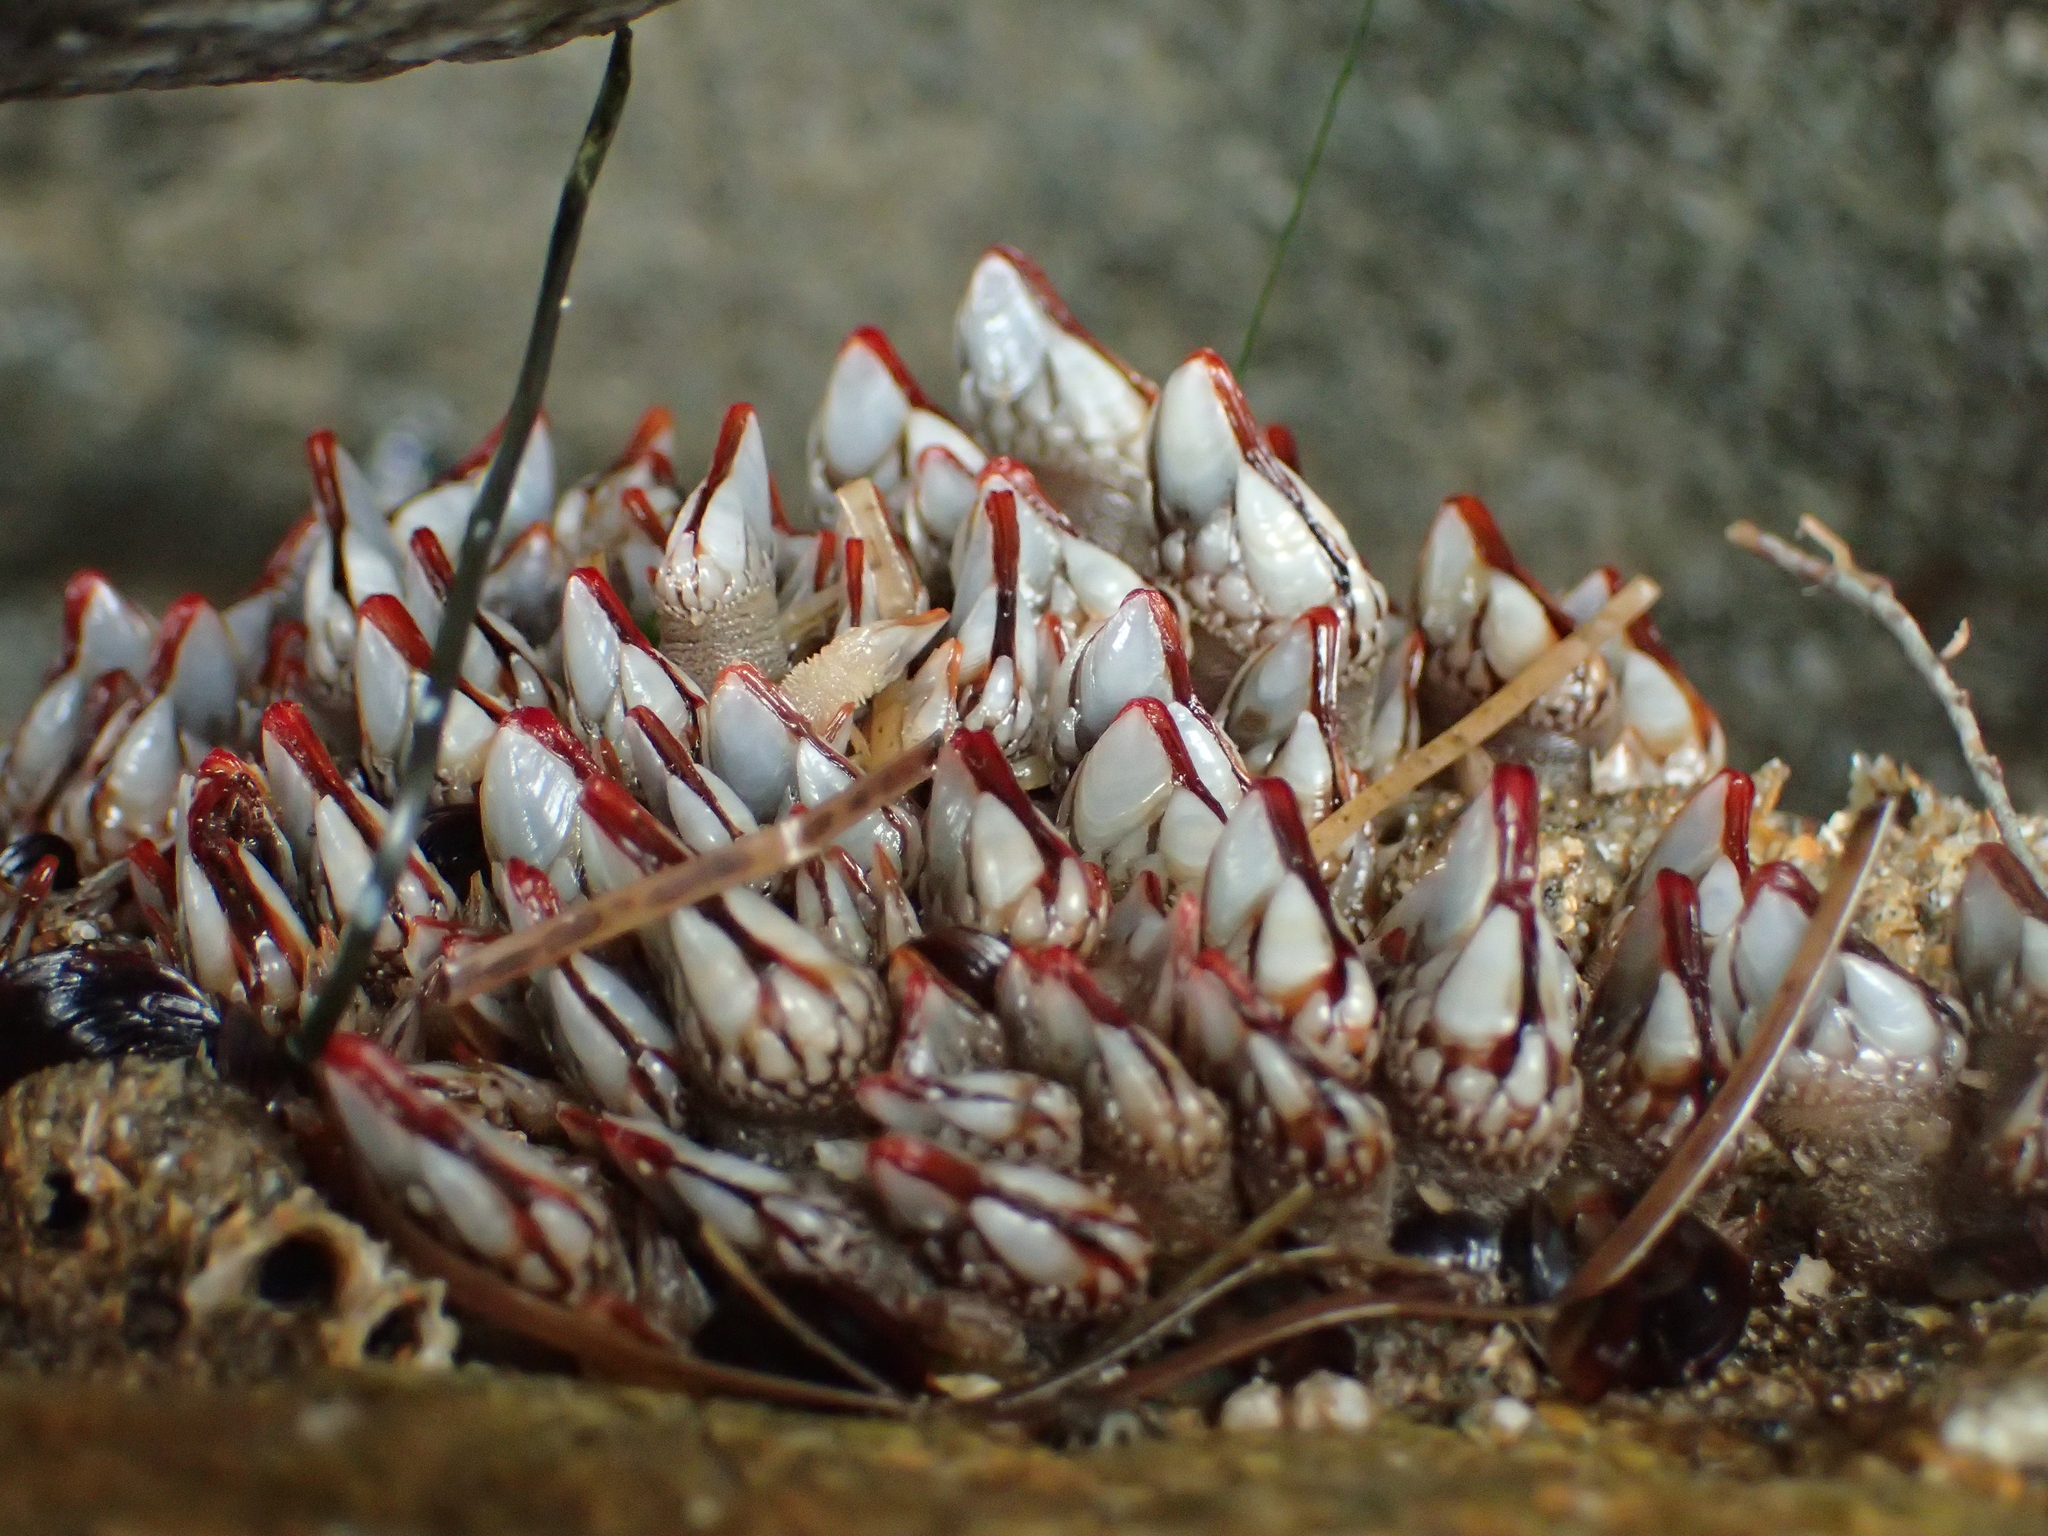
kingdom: Animalia
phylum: Arthropoda
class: Maxillopoda
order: Pedunculata
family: Pollicipedidae
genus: Pollicipes
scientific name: Pollicipes polymerus
